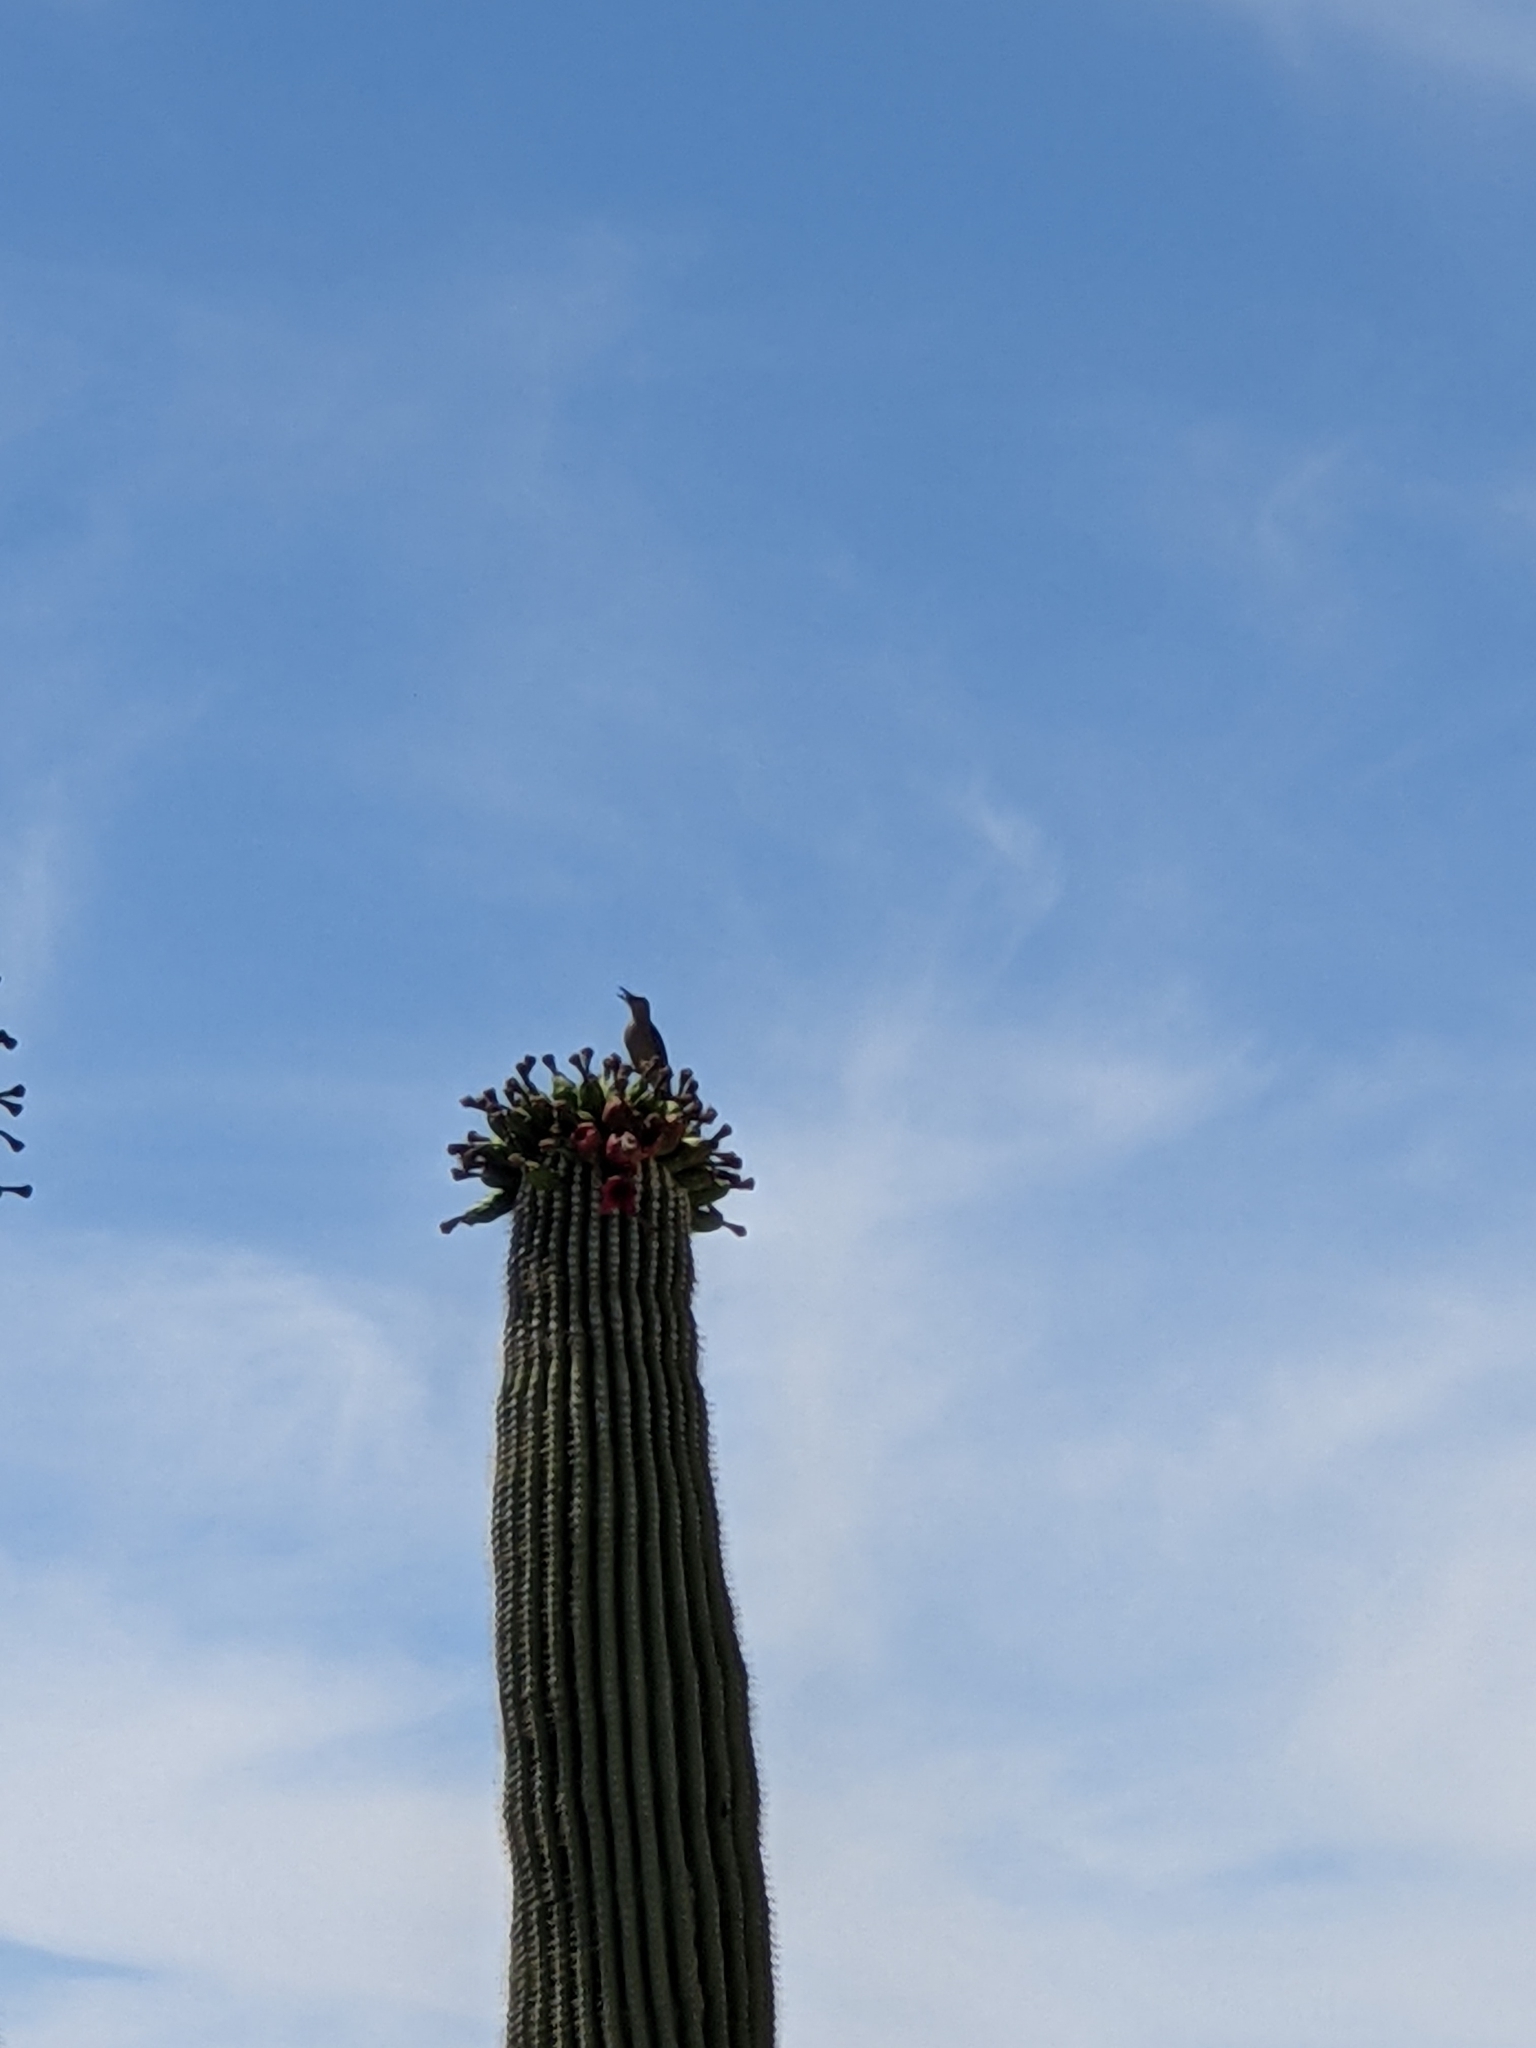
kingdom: Animalia
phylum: Chordata
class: Aves
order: Piciformes
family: Picidae
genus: Melanerpes
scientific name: Melanerpes uropygialis
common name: Gila woodpecker
